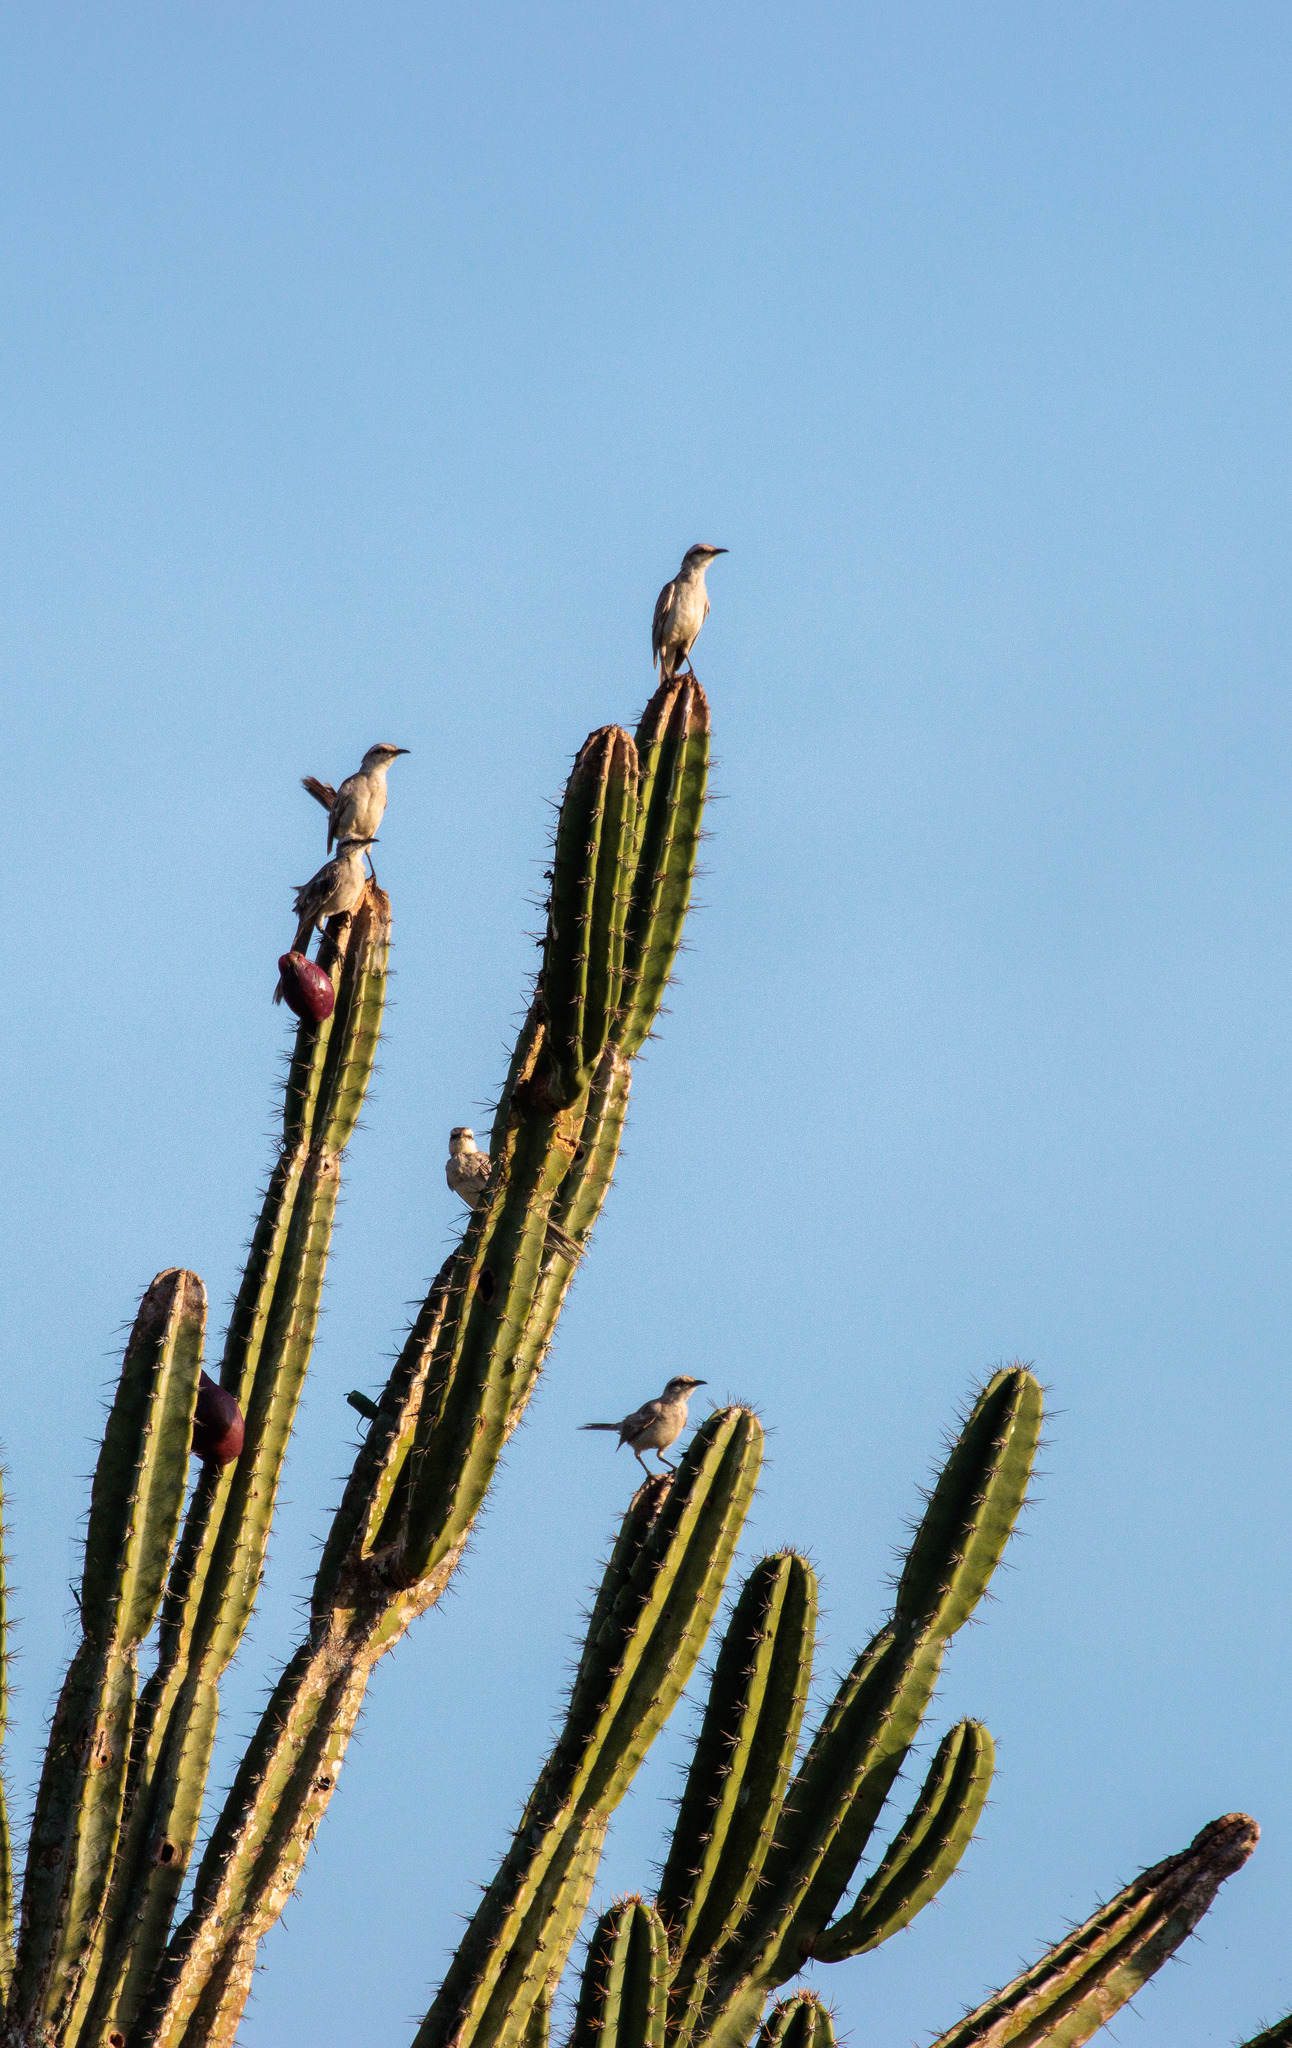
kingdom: Animalia
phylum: Chordata
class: Aves
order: Passeriformes
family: Mimidae
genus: Mimus
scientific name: Mimus saturninus
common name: Chalk-browed mockingbird
